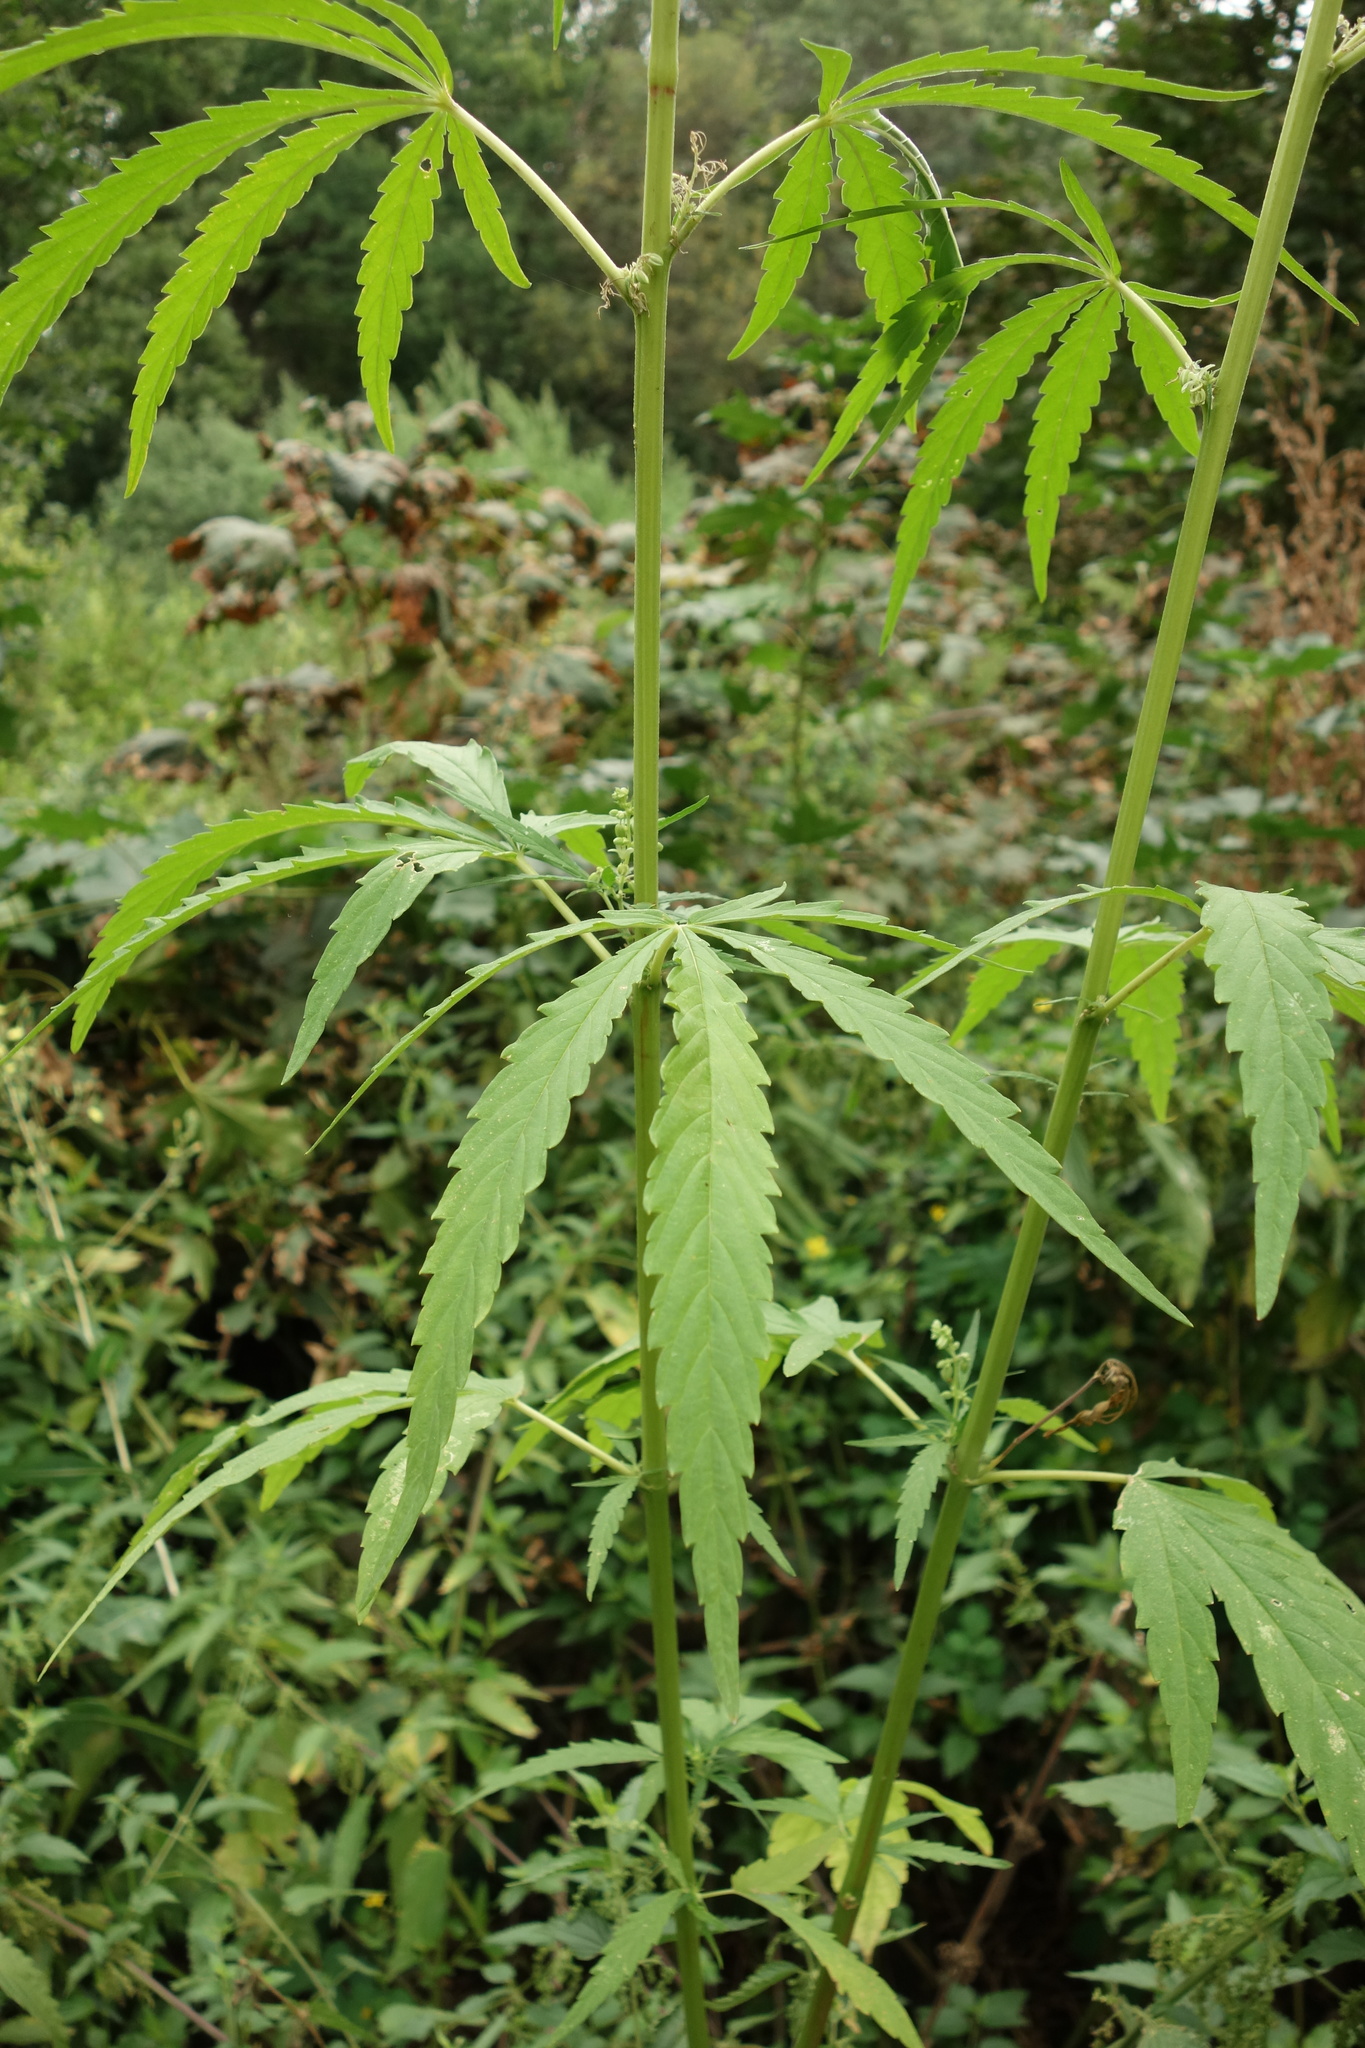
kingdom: Plantae
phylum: Tracheophyta
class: Magnoliopsida
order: Rosales
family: Cannabaceae
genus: Cannabis
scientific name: Cannabis sativa
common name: Hemp
